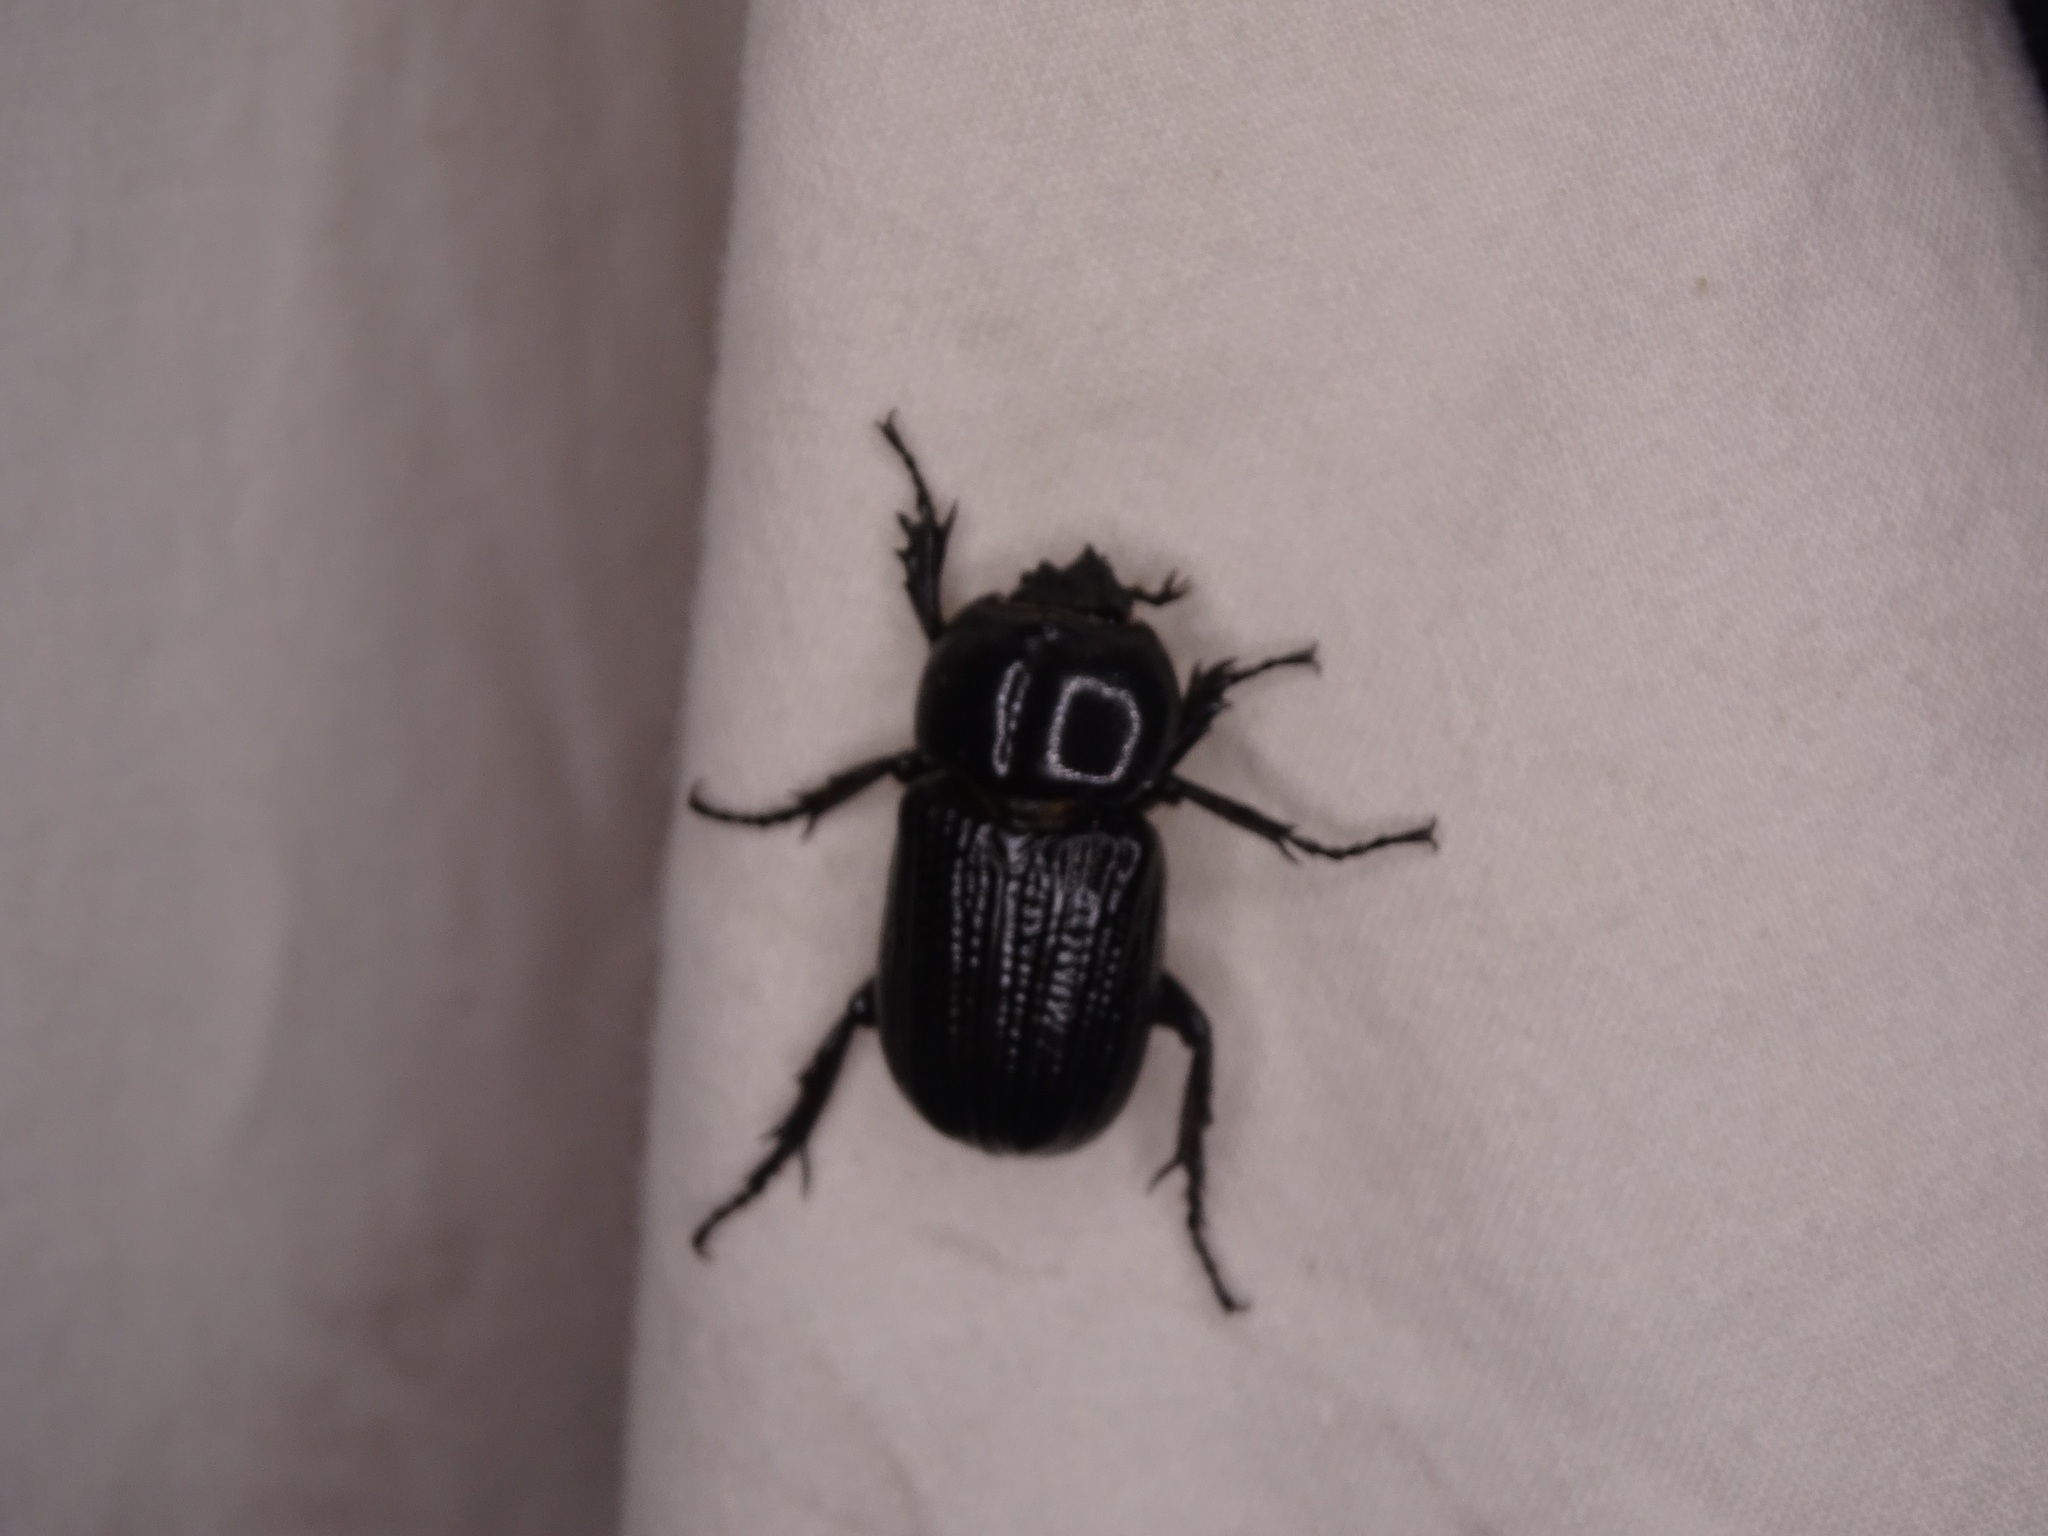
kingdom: Animalia
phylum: Arthropoda
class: Insecta
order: Coleoptera
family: Scarabaeidae
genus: Phileurus
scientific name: Phileurus valgus
